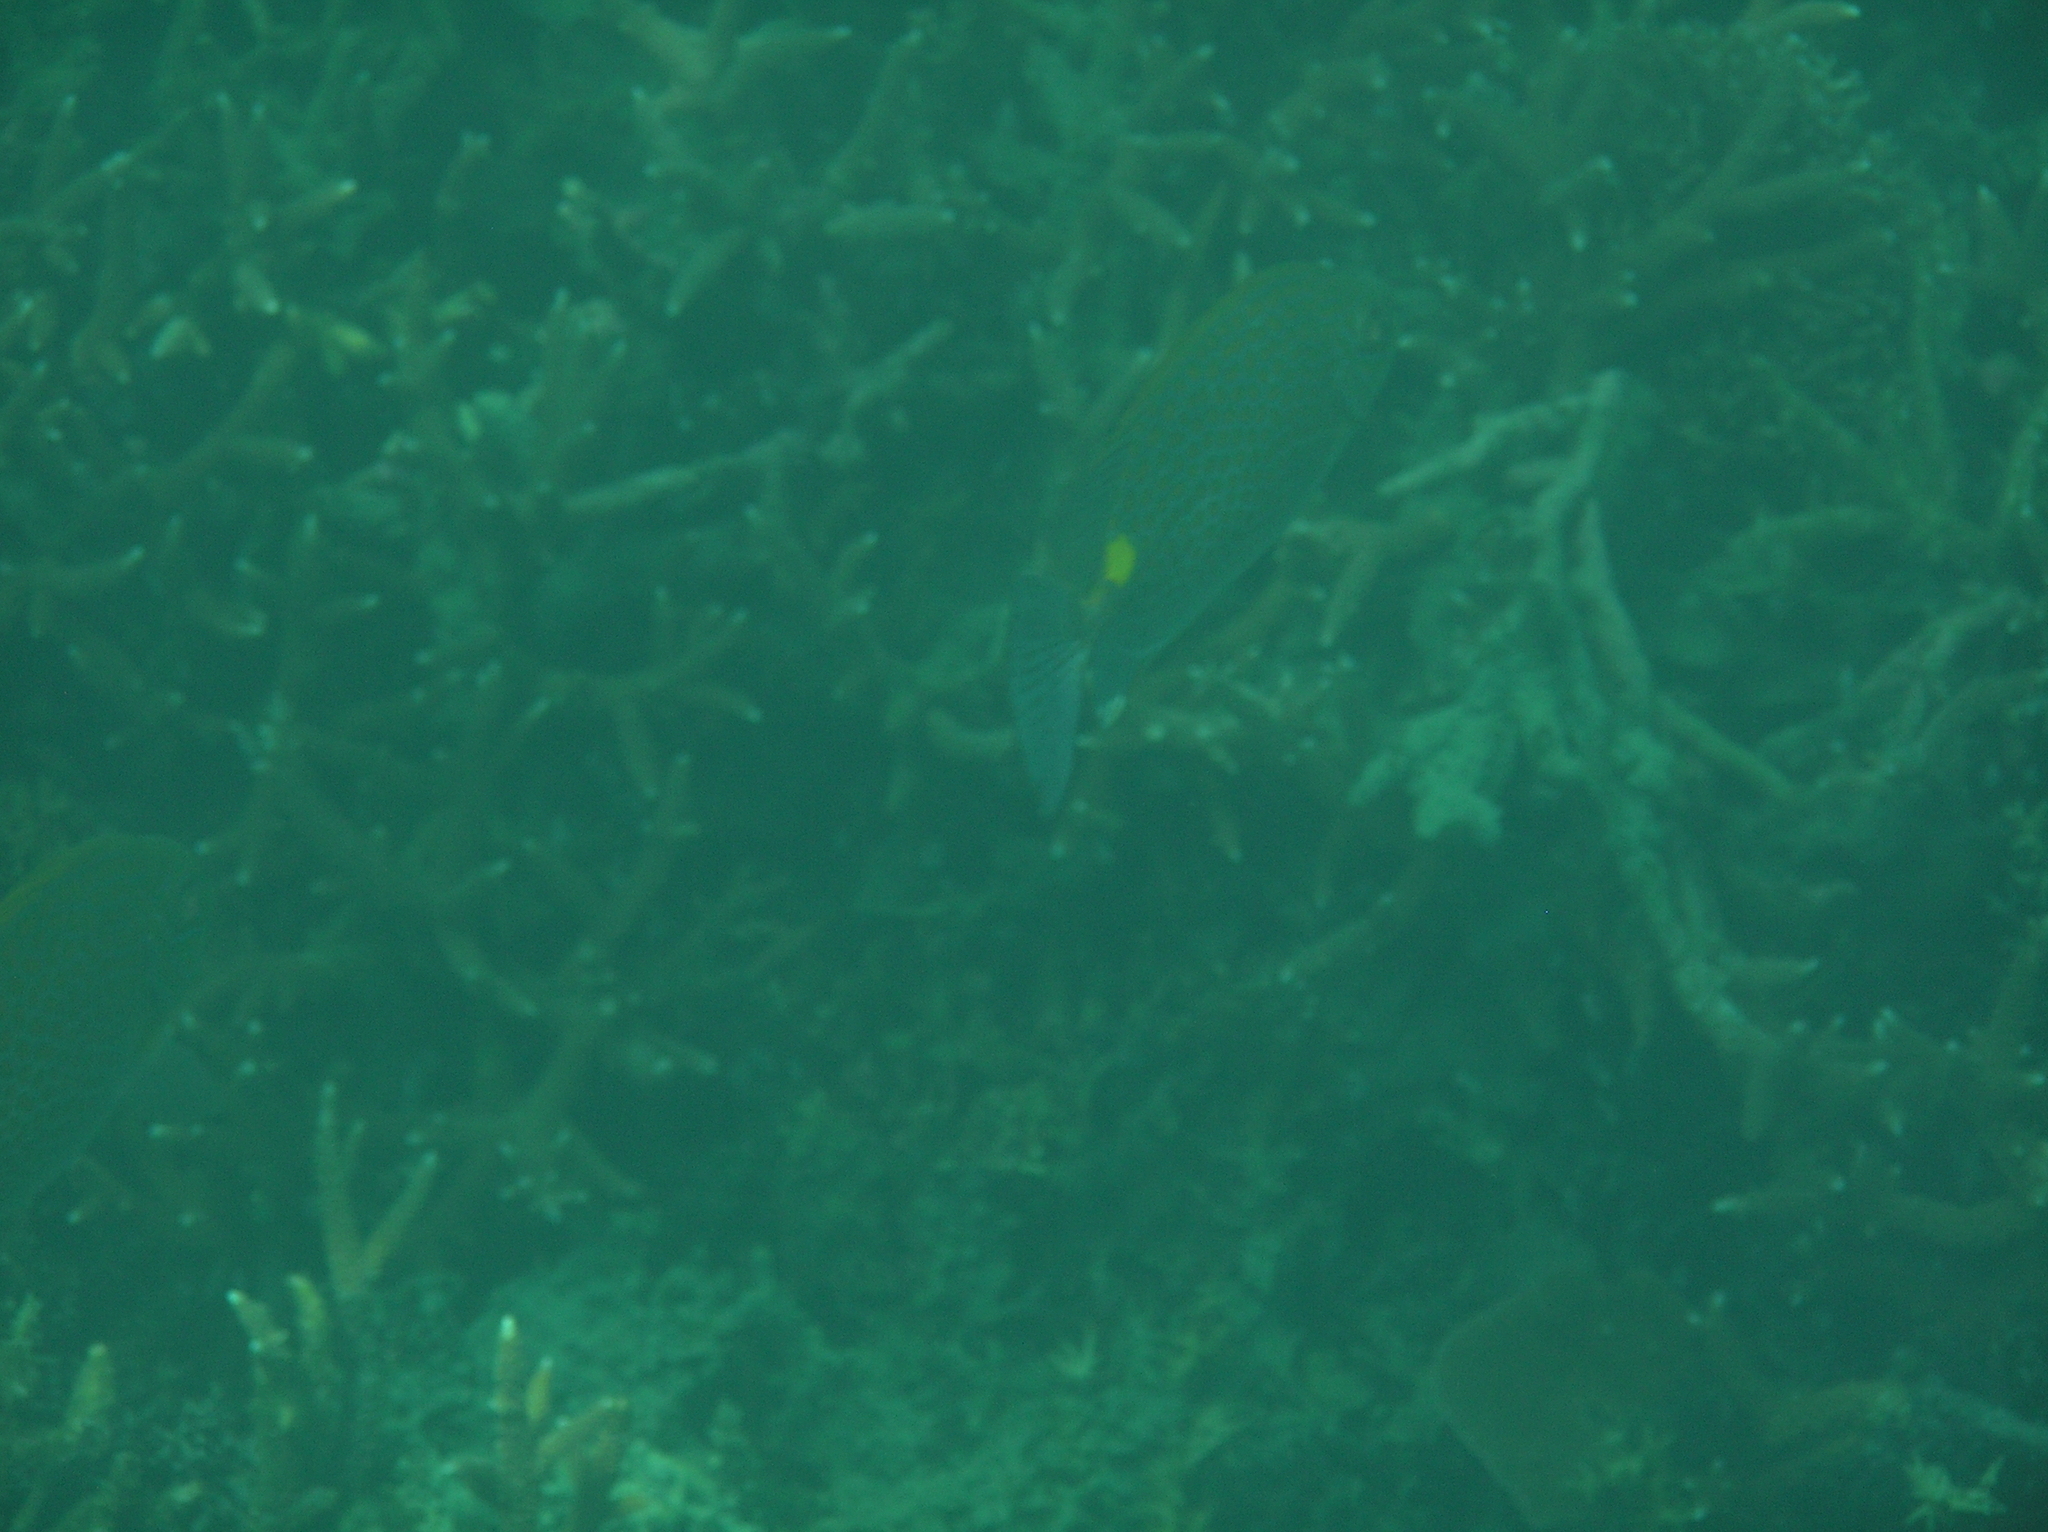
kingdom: Animalia
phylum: Chordata
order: Perciformes
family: Siganidae
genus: Siganus
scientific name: Siganus guttatus
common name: Golden rabbitfish
